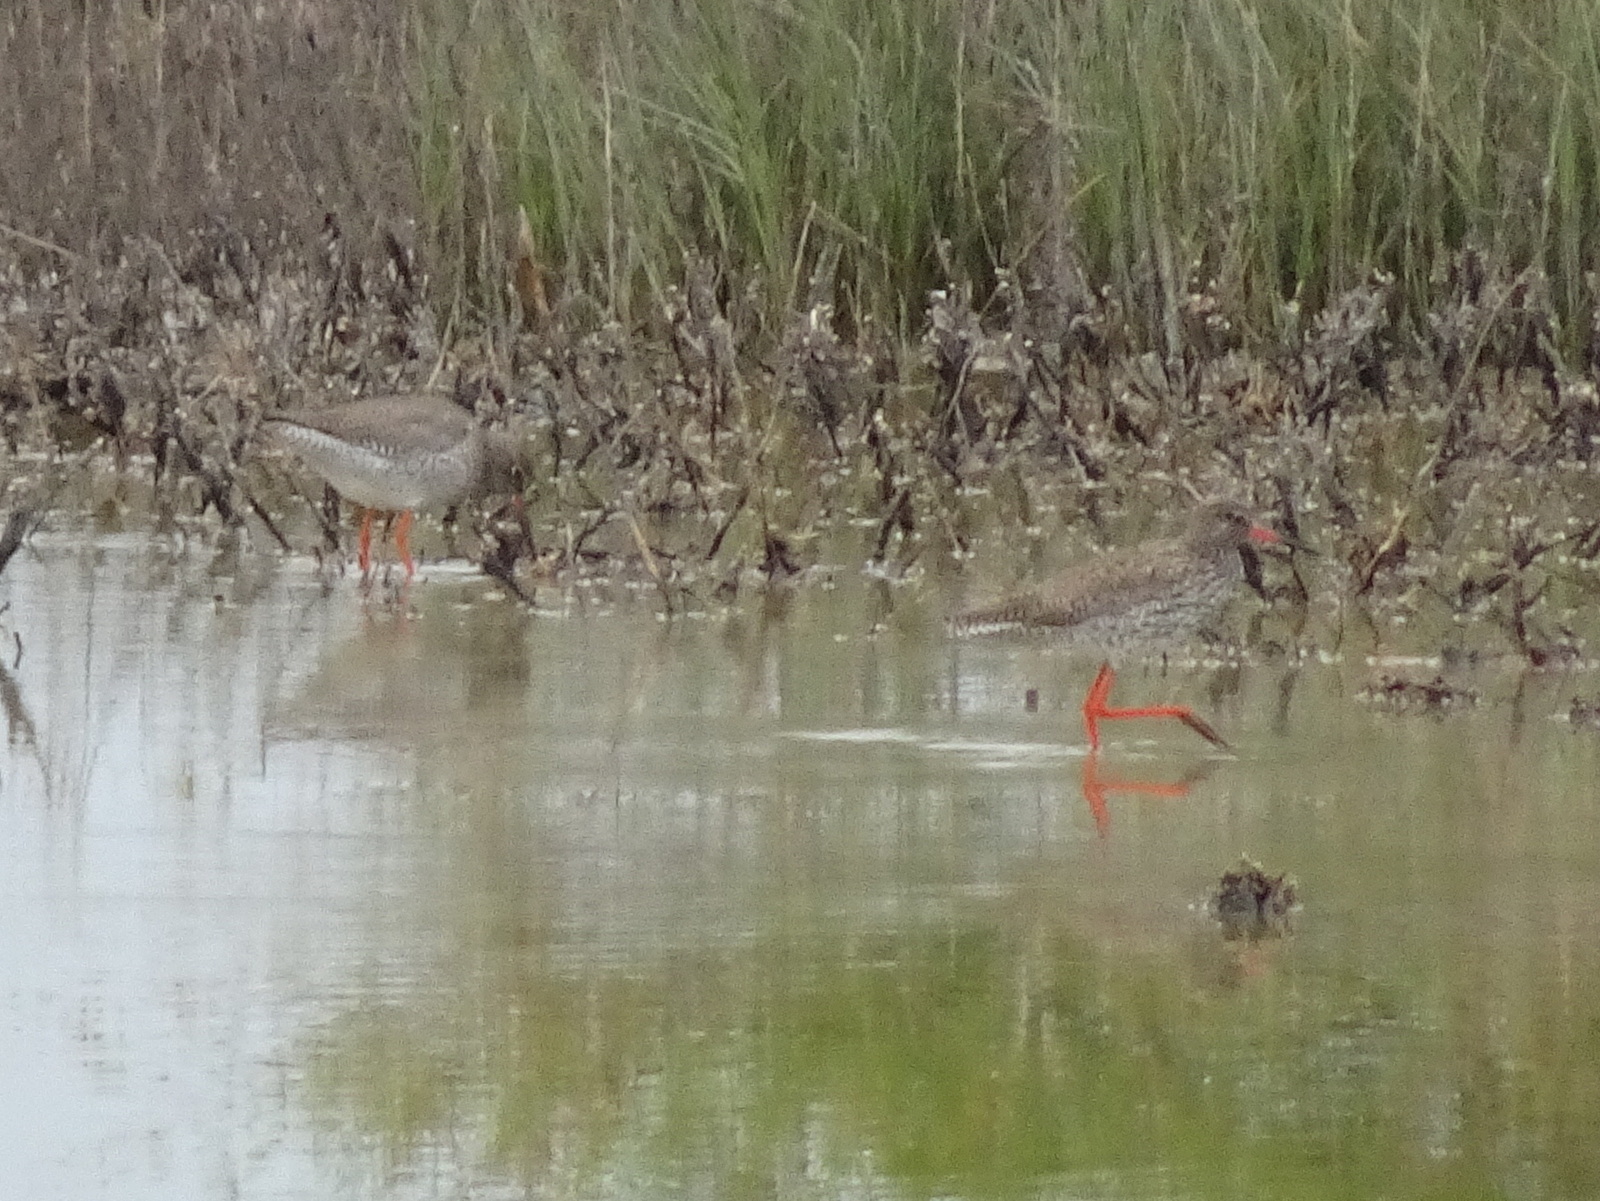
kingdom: Animalia
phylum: Chordata
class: Aves
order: Charadriiformes
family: Scolopacidae
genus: Tringa
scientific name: Tringa totanus
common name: Common redshank
